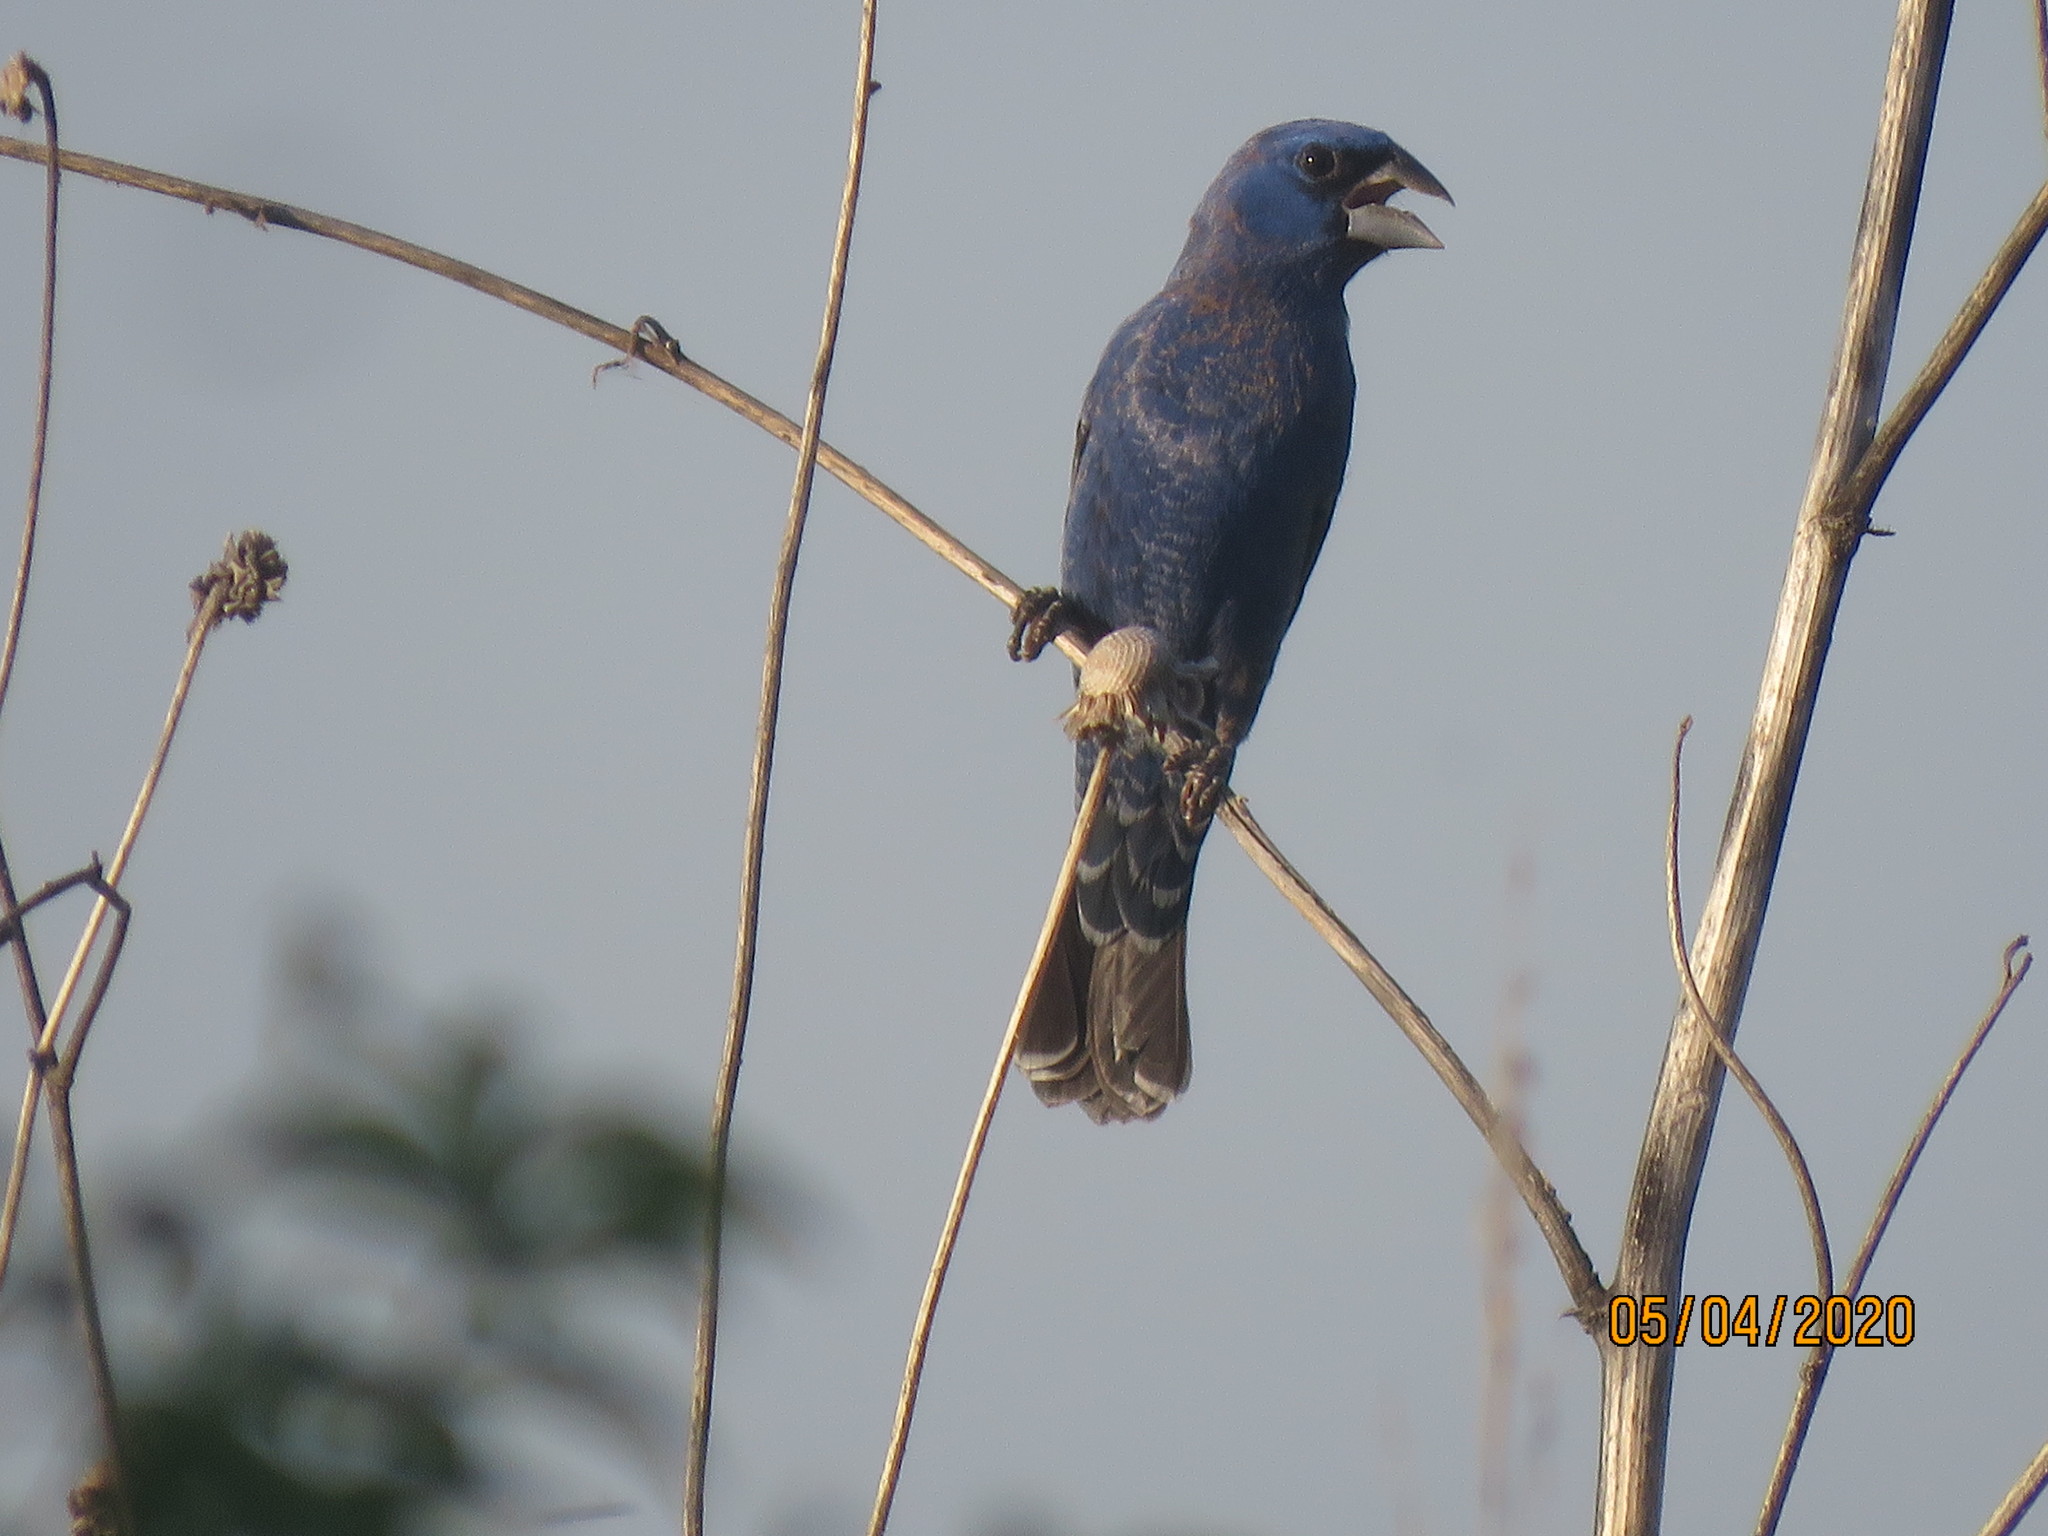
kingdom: Animalia
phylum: Chordata
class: Aves
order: Passeriformes
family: Cardinalidae
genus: Passerina
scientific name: Passerina caerulea
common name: Blue grosbeak
